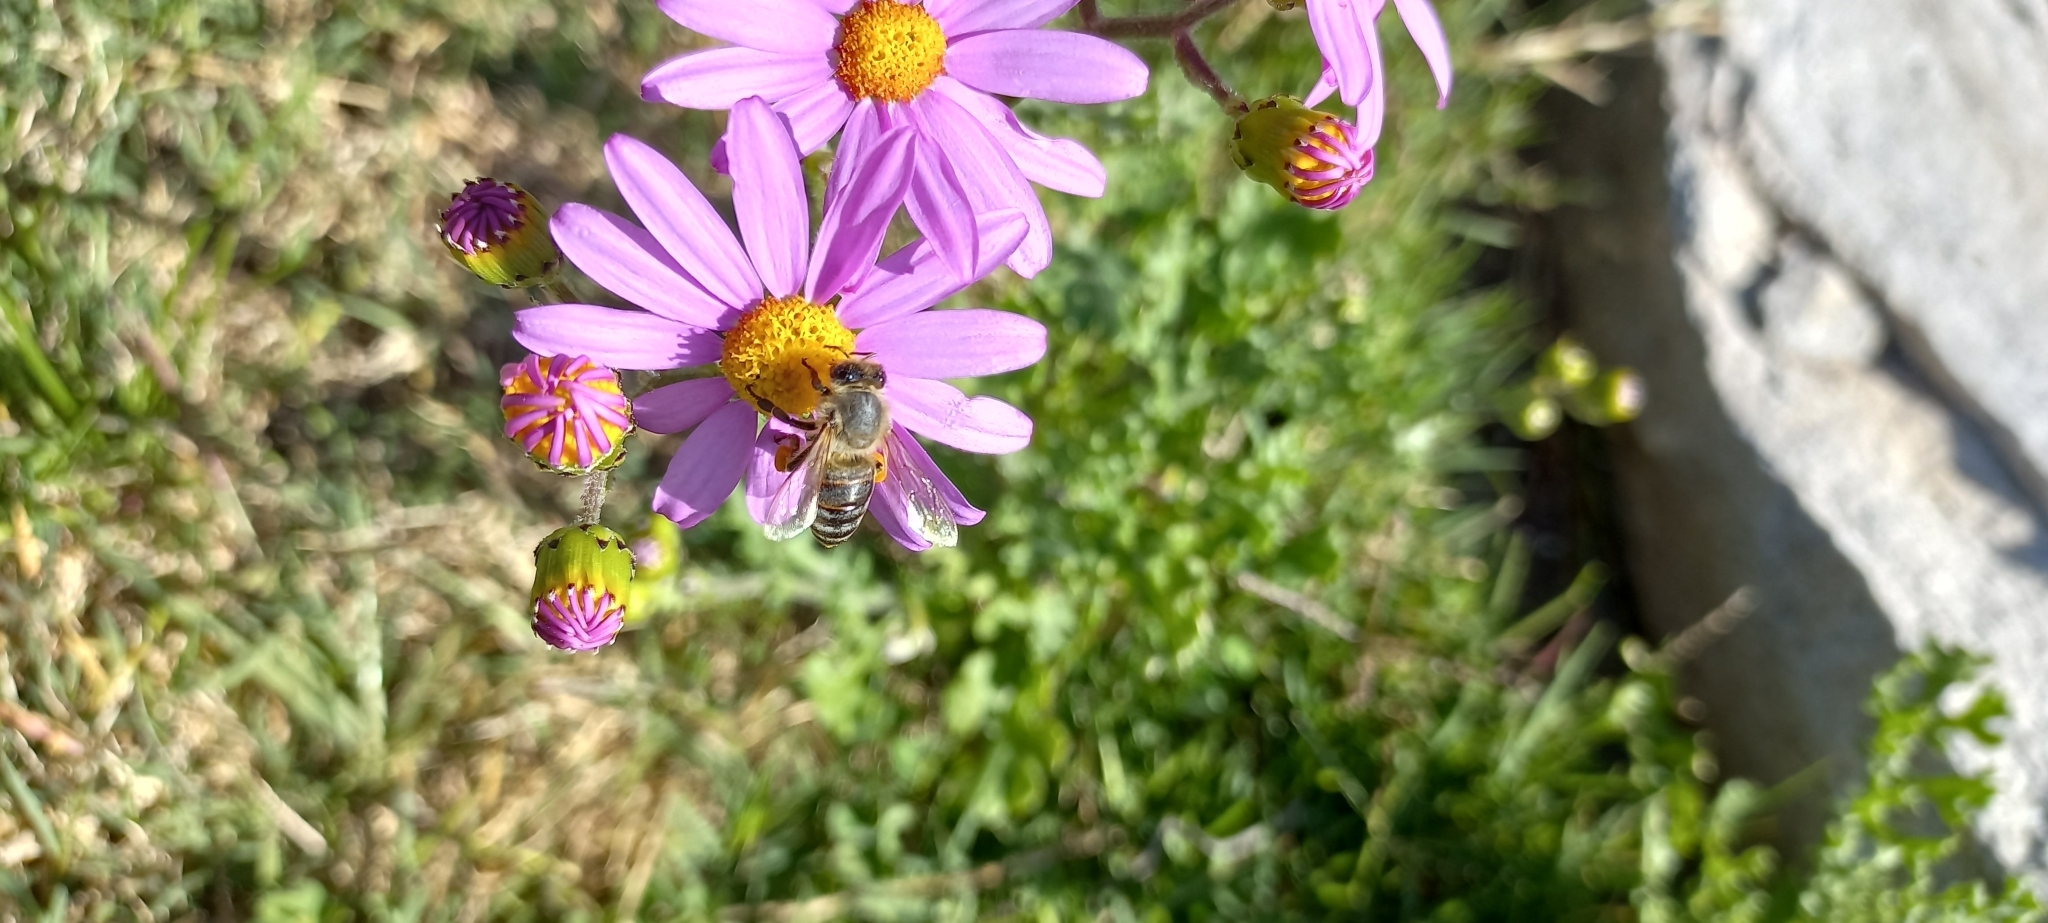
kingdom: Animalia
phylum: Arthropoda
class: Insecta
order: Hymenoptera
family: Apidae
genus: Apis
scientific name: Apis mellifera
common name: Honey bee
